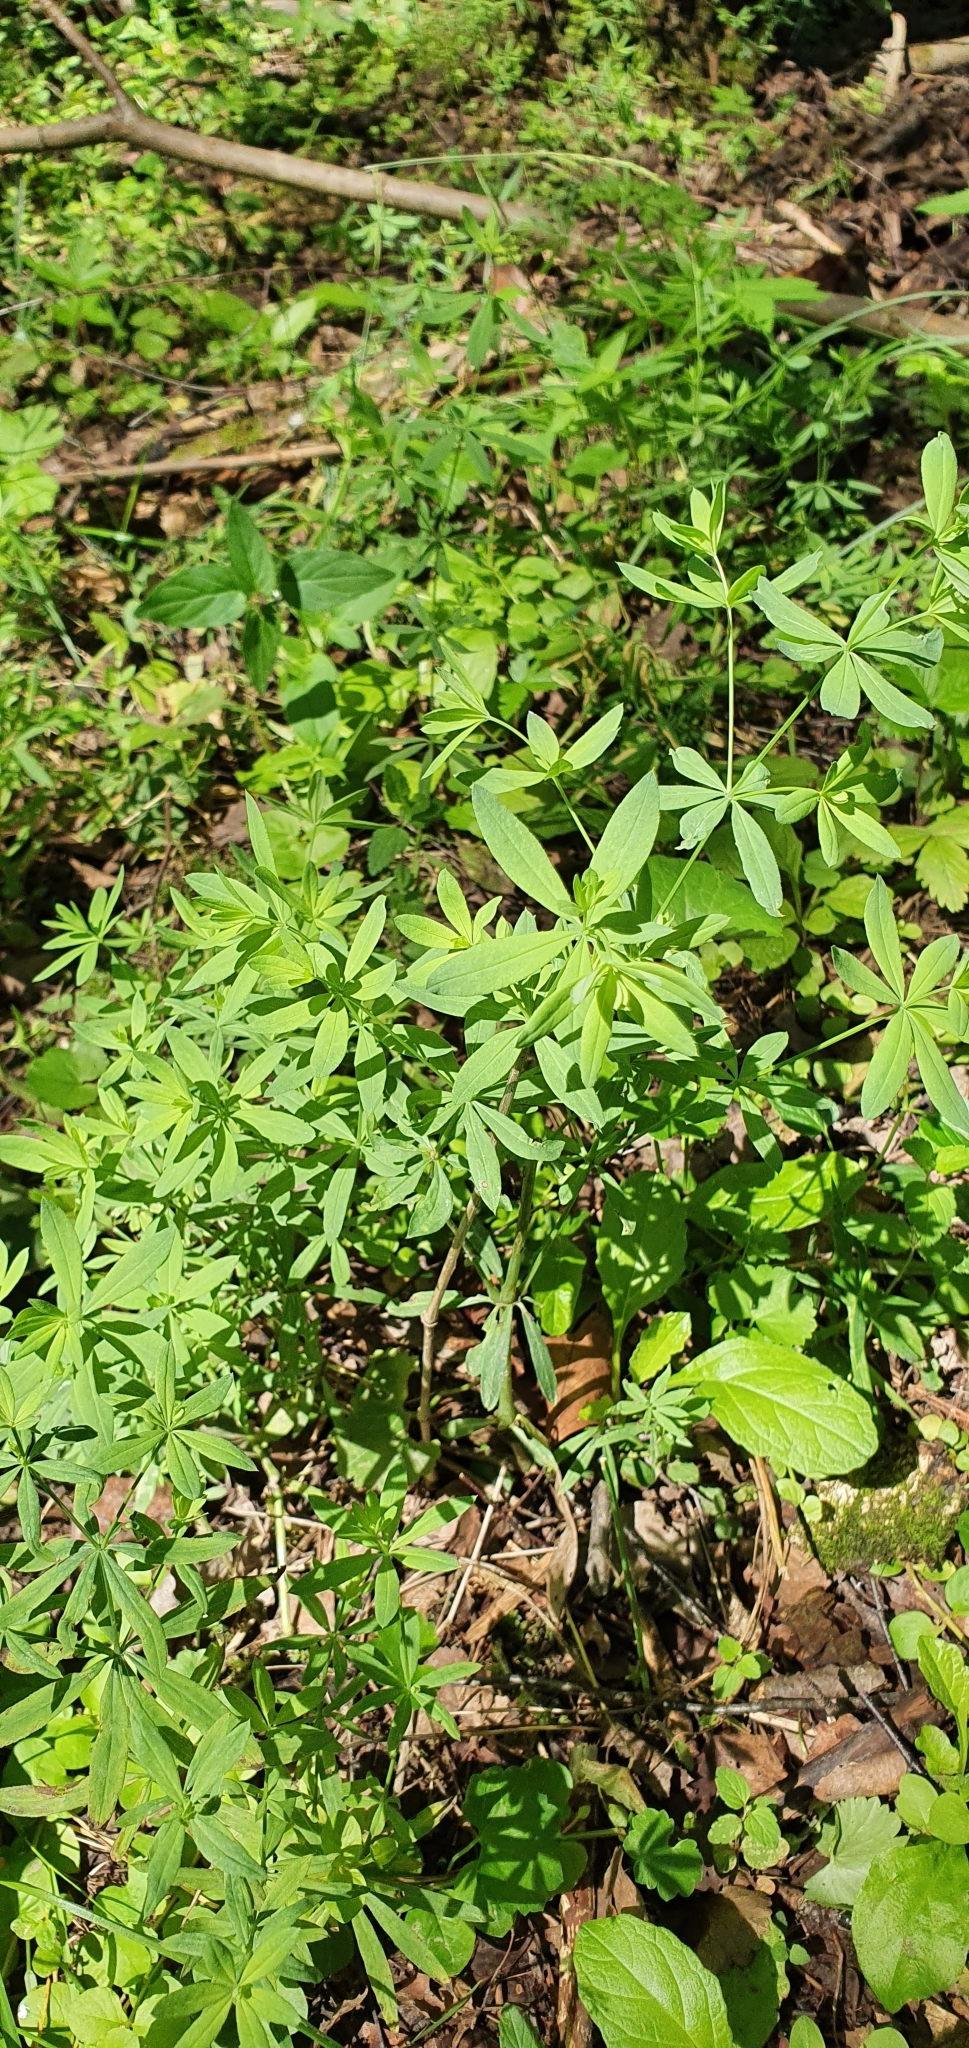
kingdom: Plantae
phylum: Tracheophyta
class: Magnoliopsida
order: Gentianales
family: Rubiaceae
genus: Galium
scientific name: Galium intermedium
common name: Bedstraw
